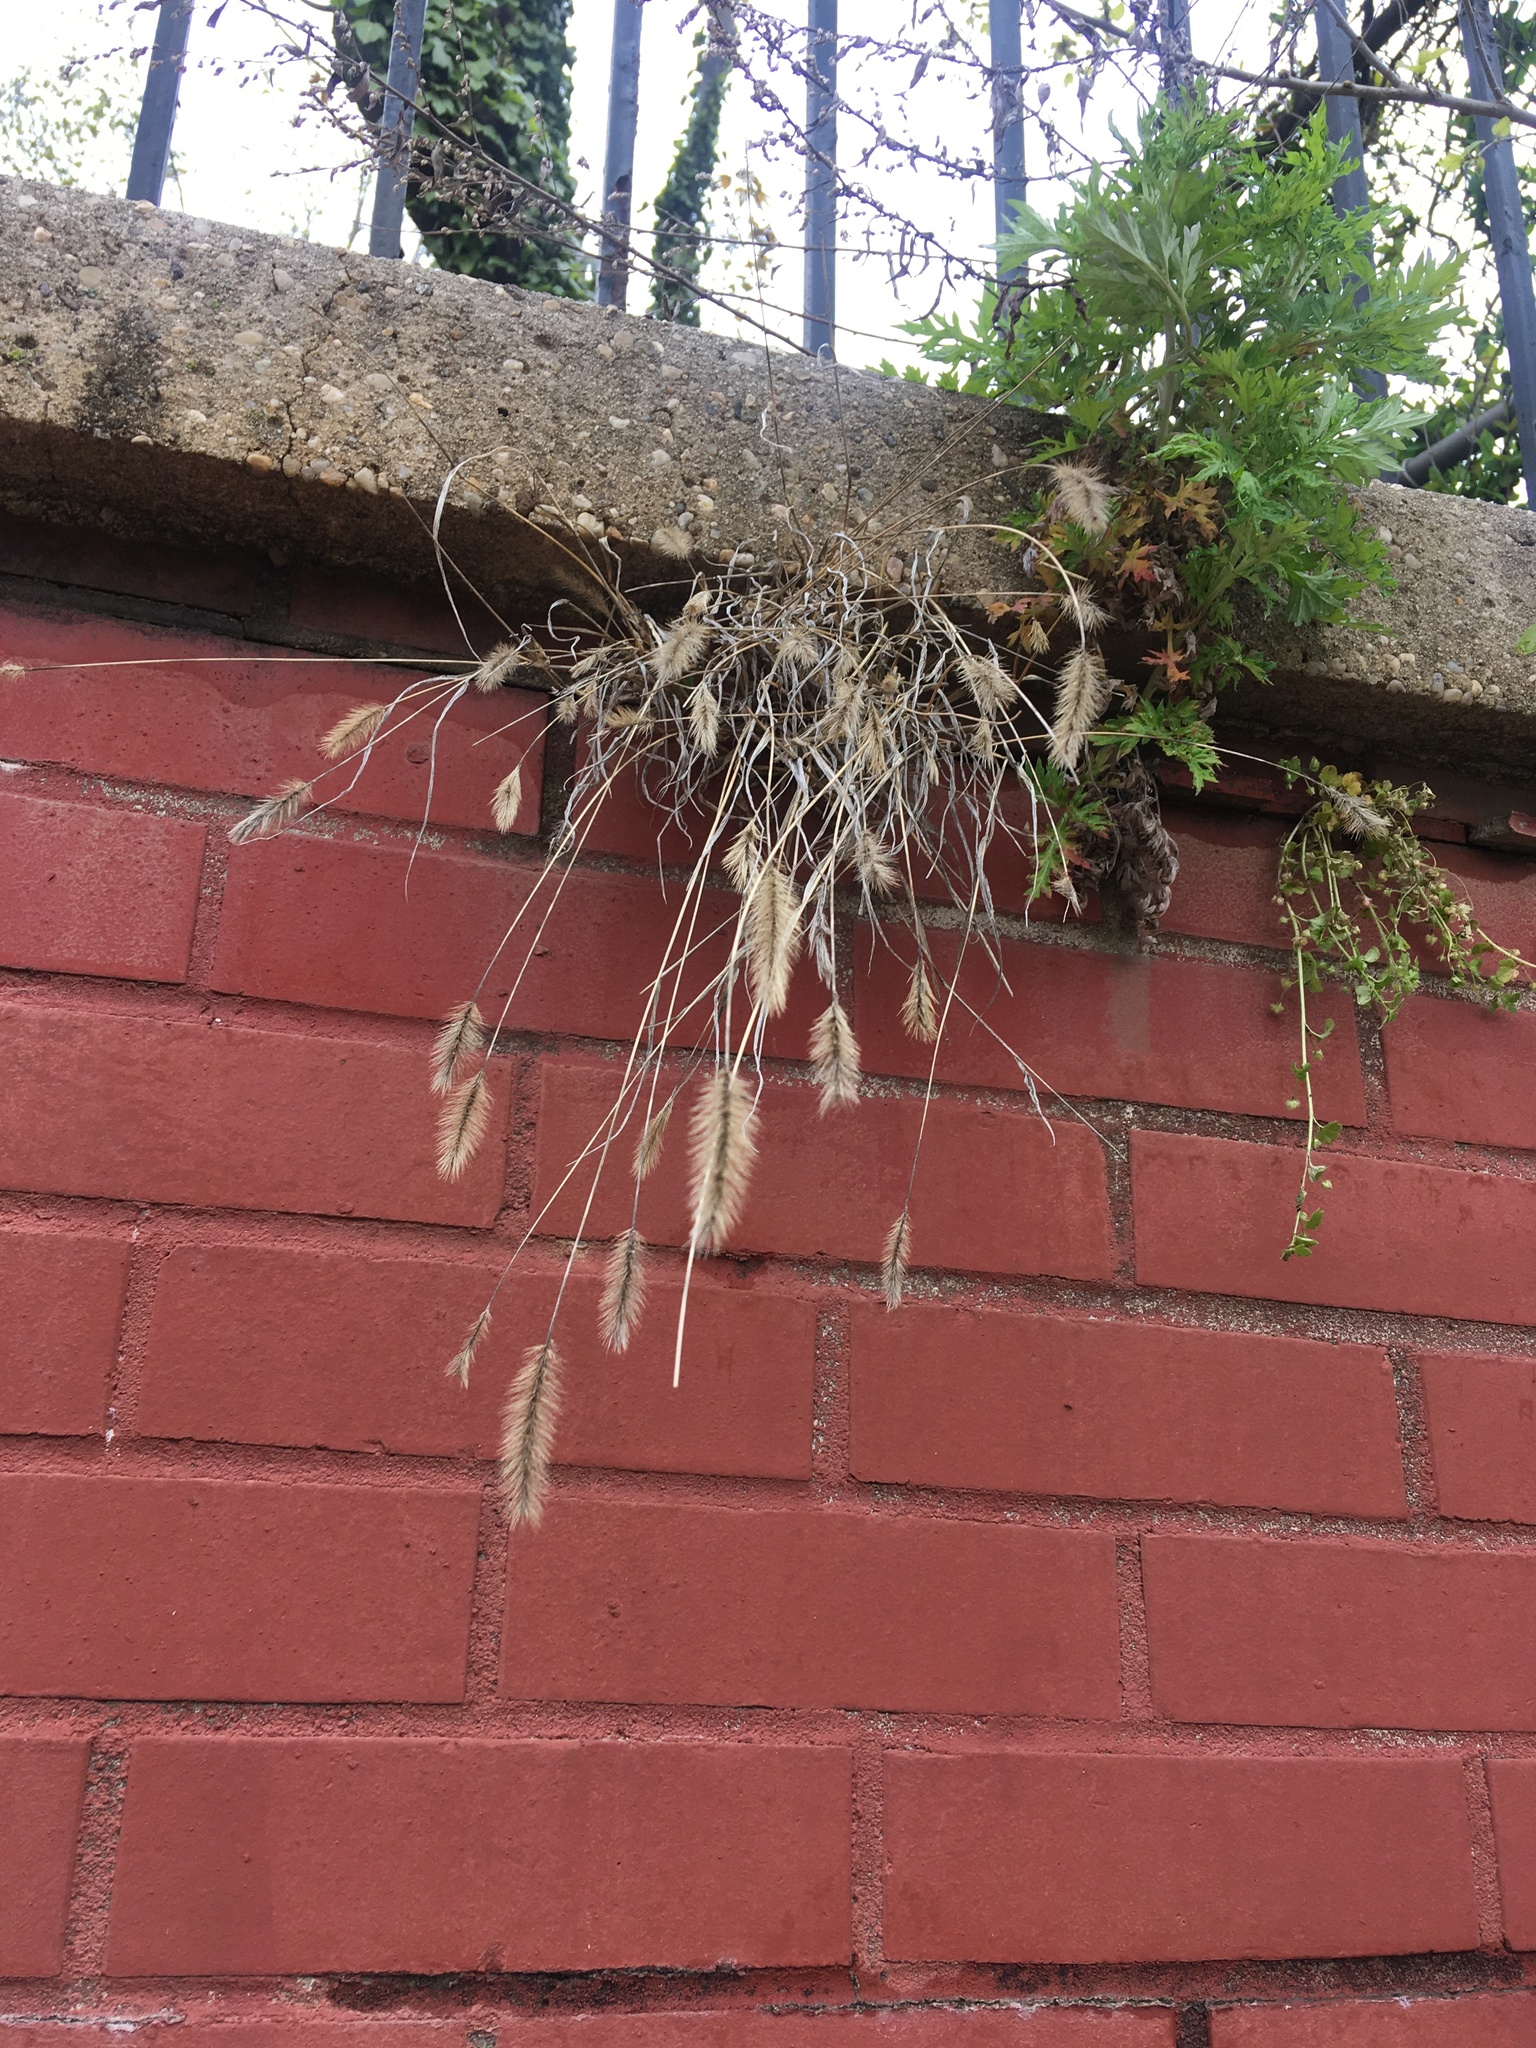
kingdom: Plantae
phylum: Tracheophyta
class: Liliopsida
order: Poales
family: Poaceae
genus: Setaria
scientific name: Setaria viridis
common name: Green bristlegrass
